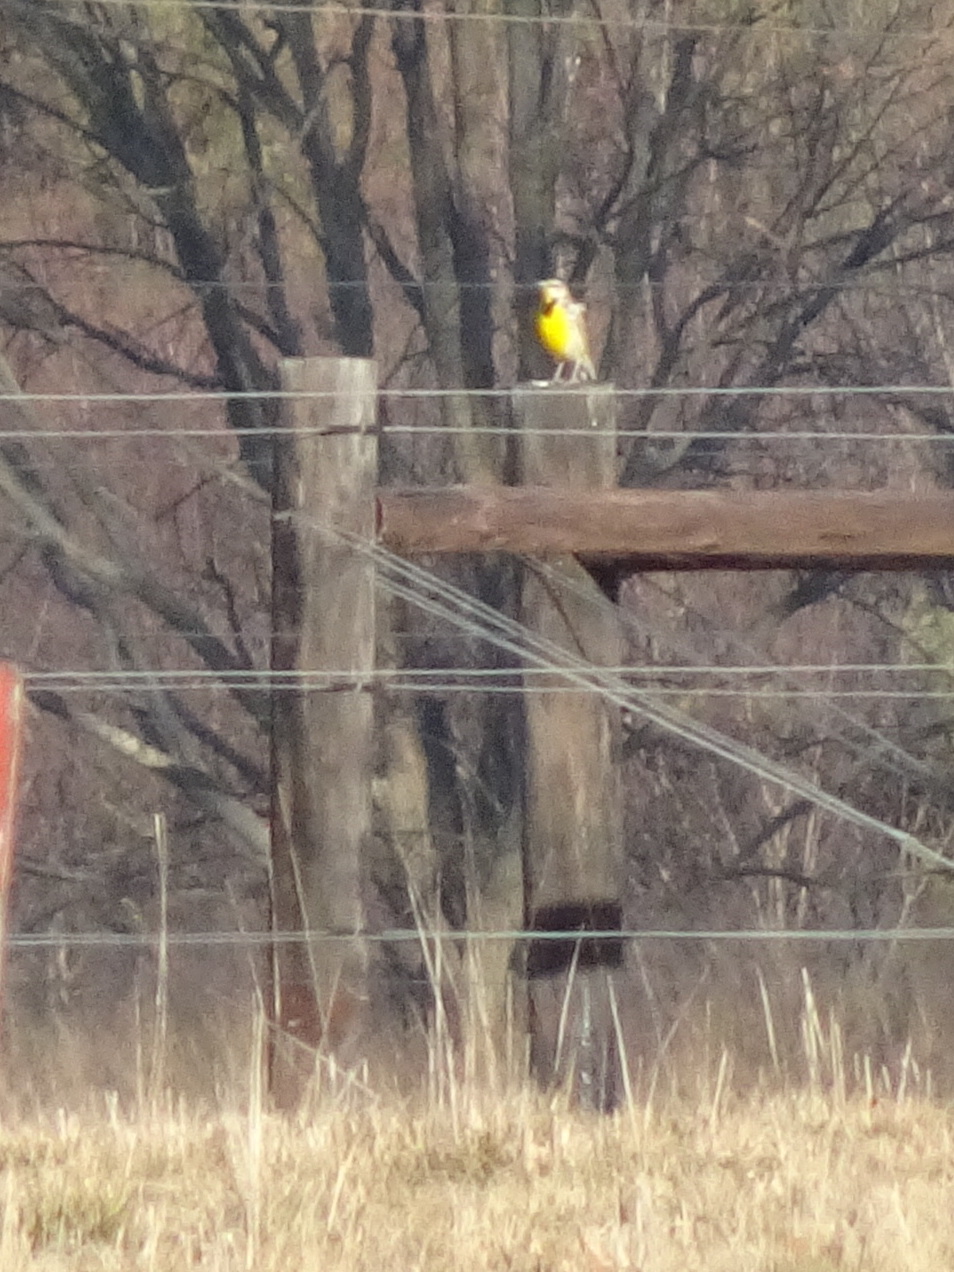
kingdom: Animalia
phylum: Chordata
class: Aves
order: Passeriformes
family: Icteridae
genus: Sturnella
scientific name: Sturnella magna
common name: Eastern meadowlark
